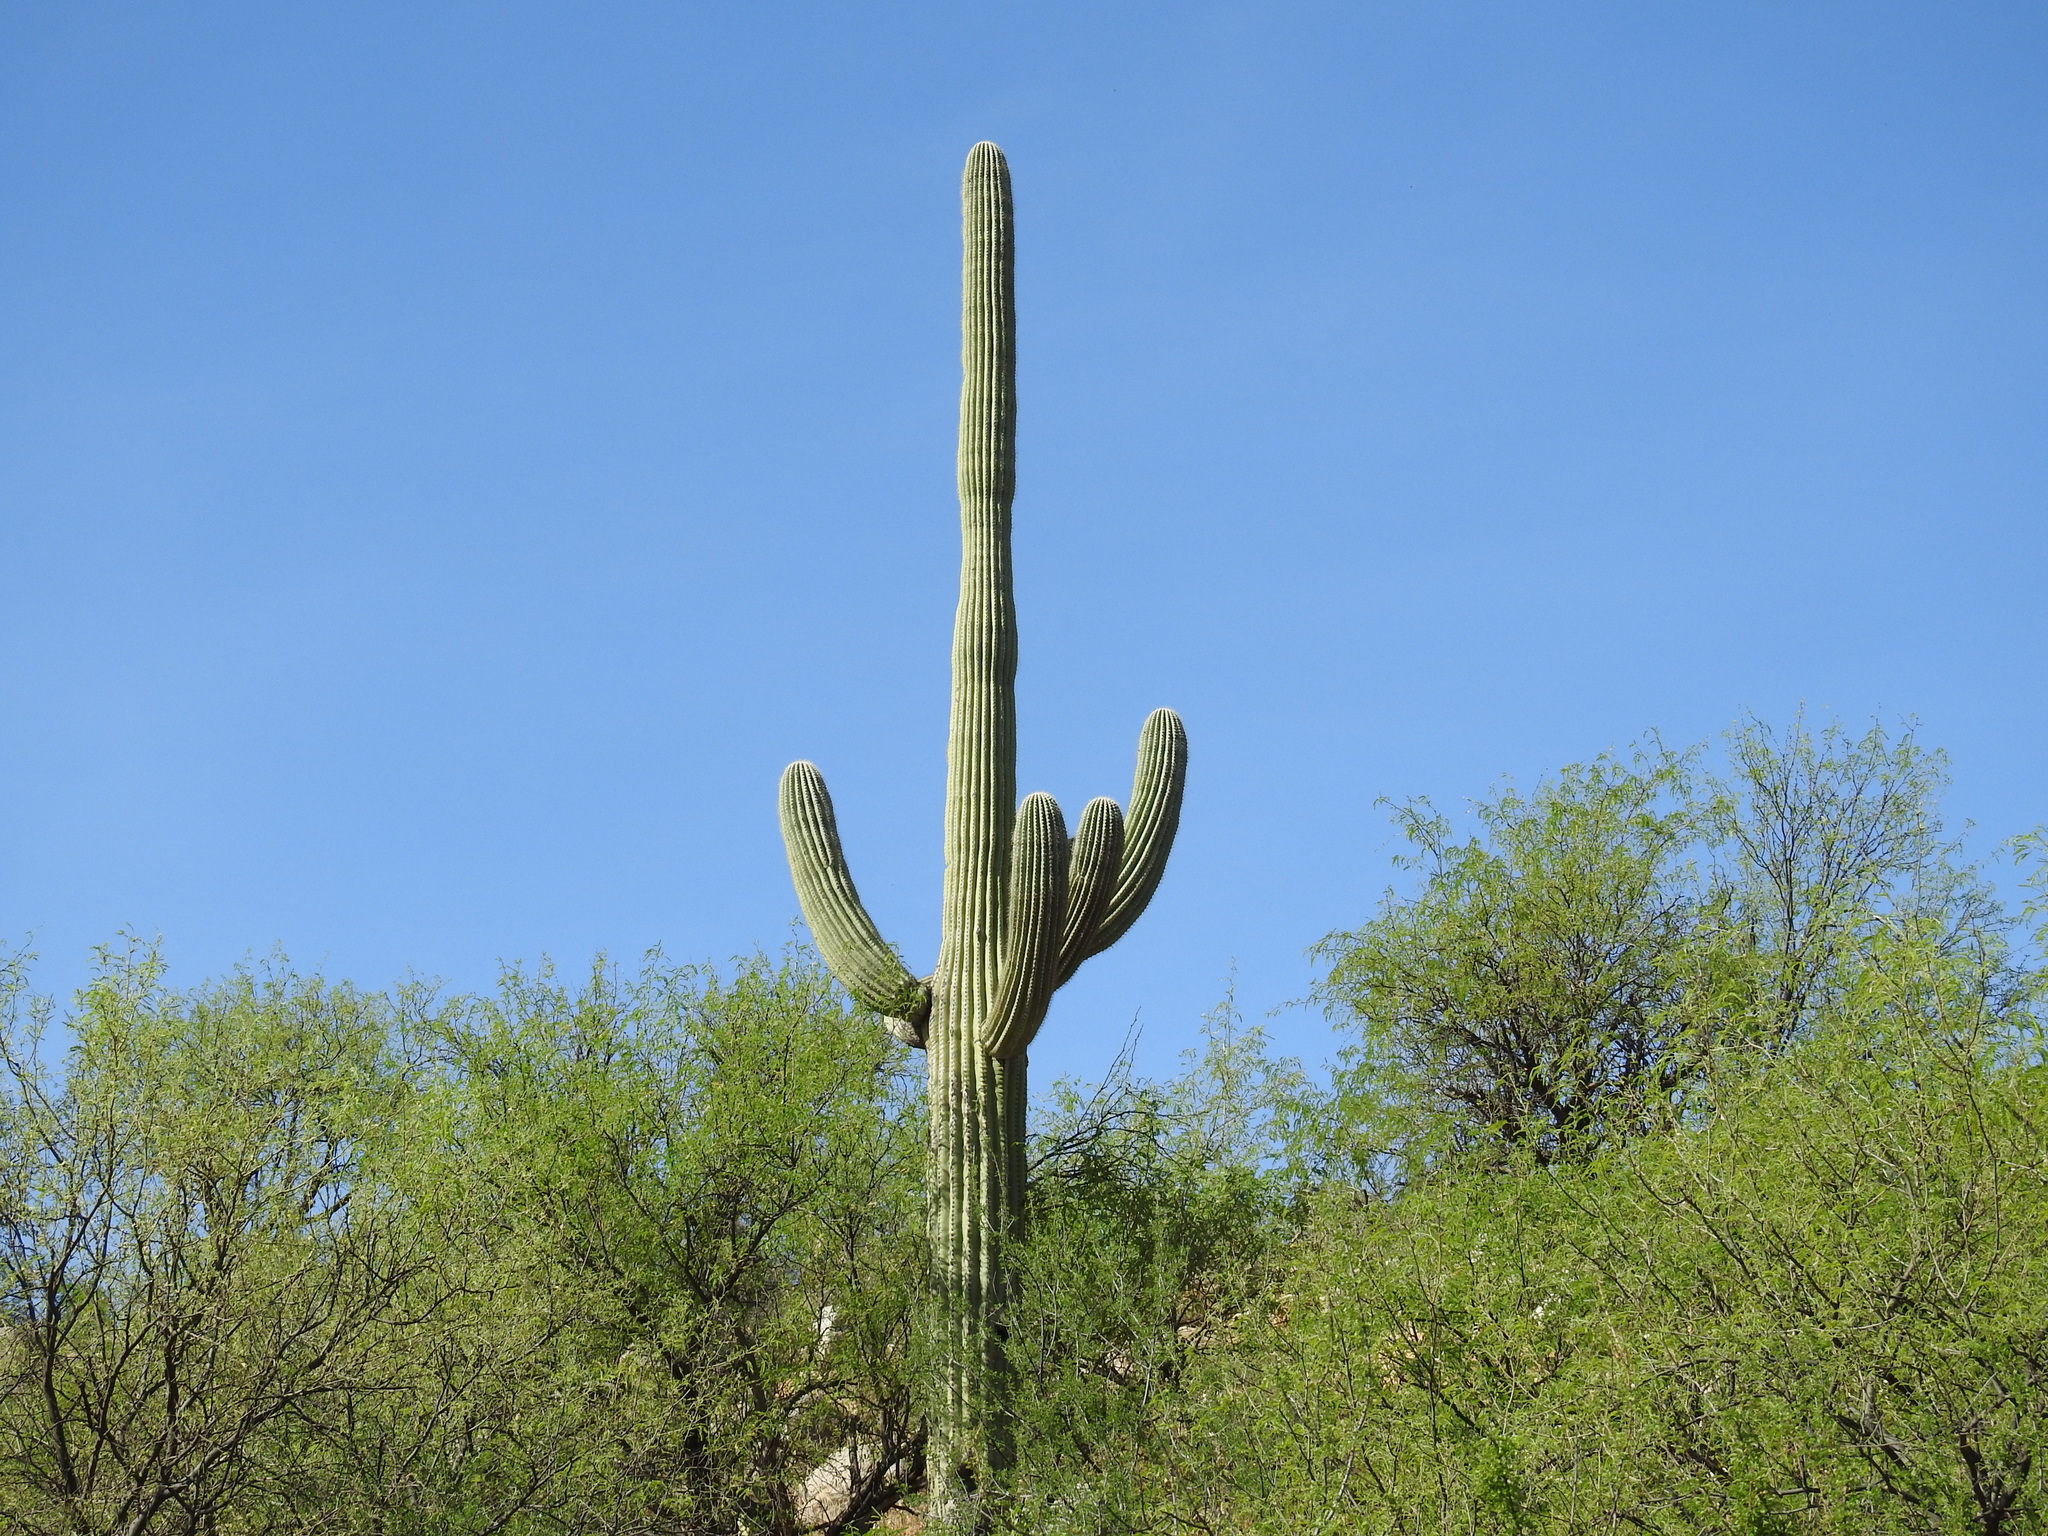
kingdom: Plantae
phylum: Tracheophyta
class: Magnoliopsida
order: Caryophyllales
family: Cactaceae
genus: Carnegiea
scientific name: Carnegiea gigantea
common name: Saguaro
